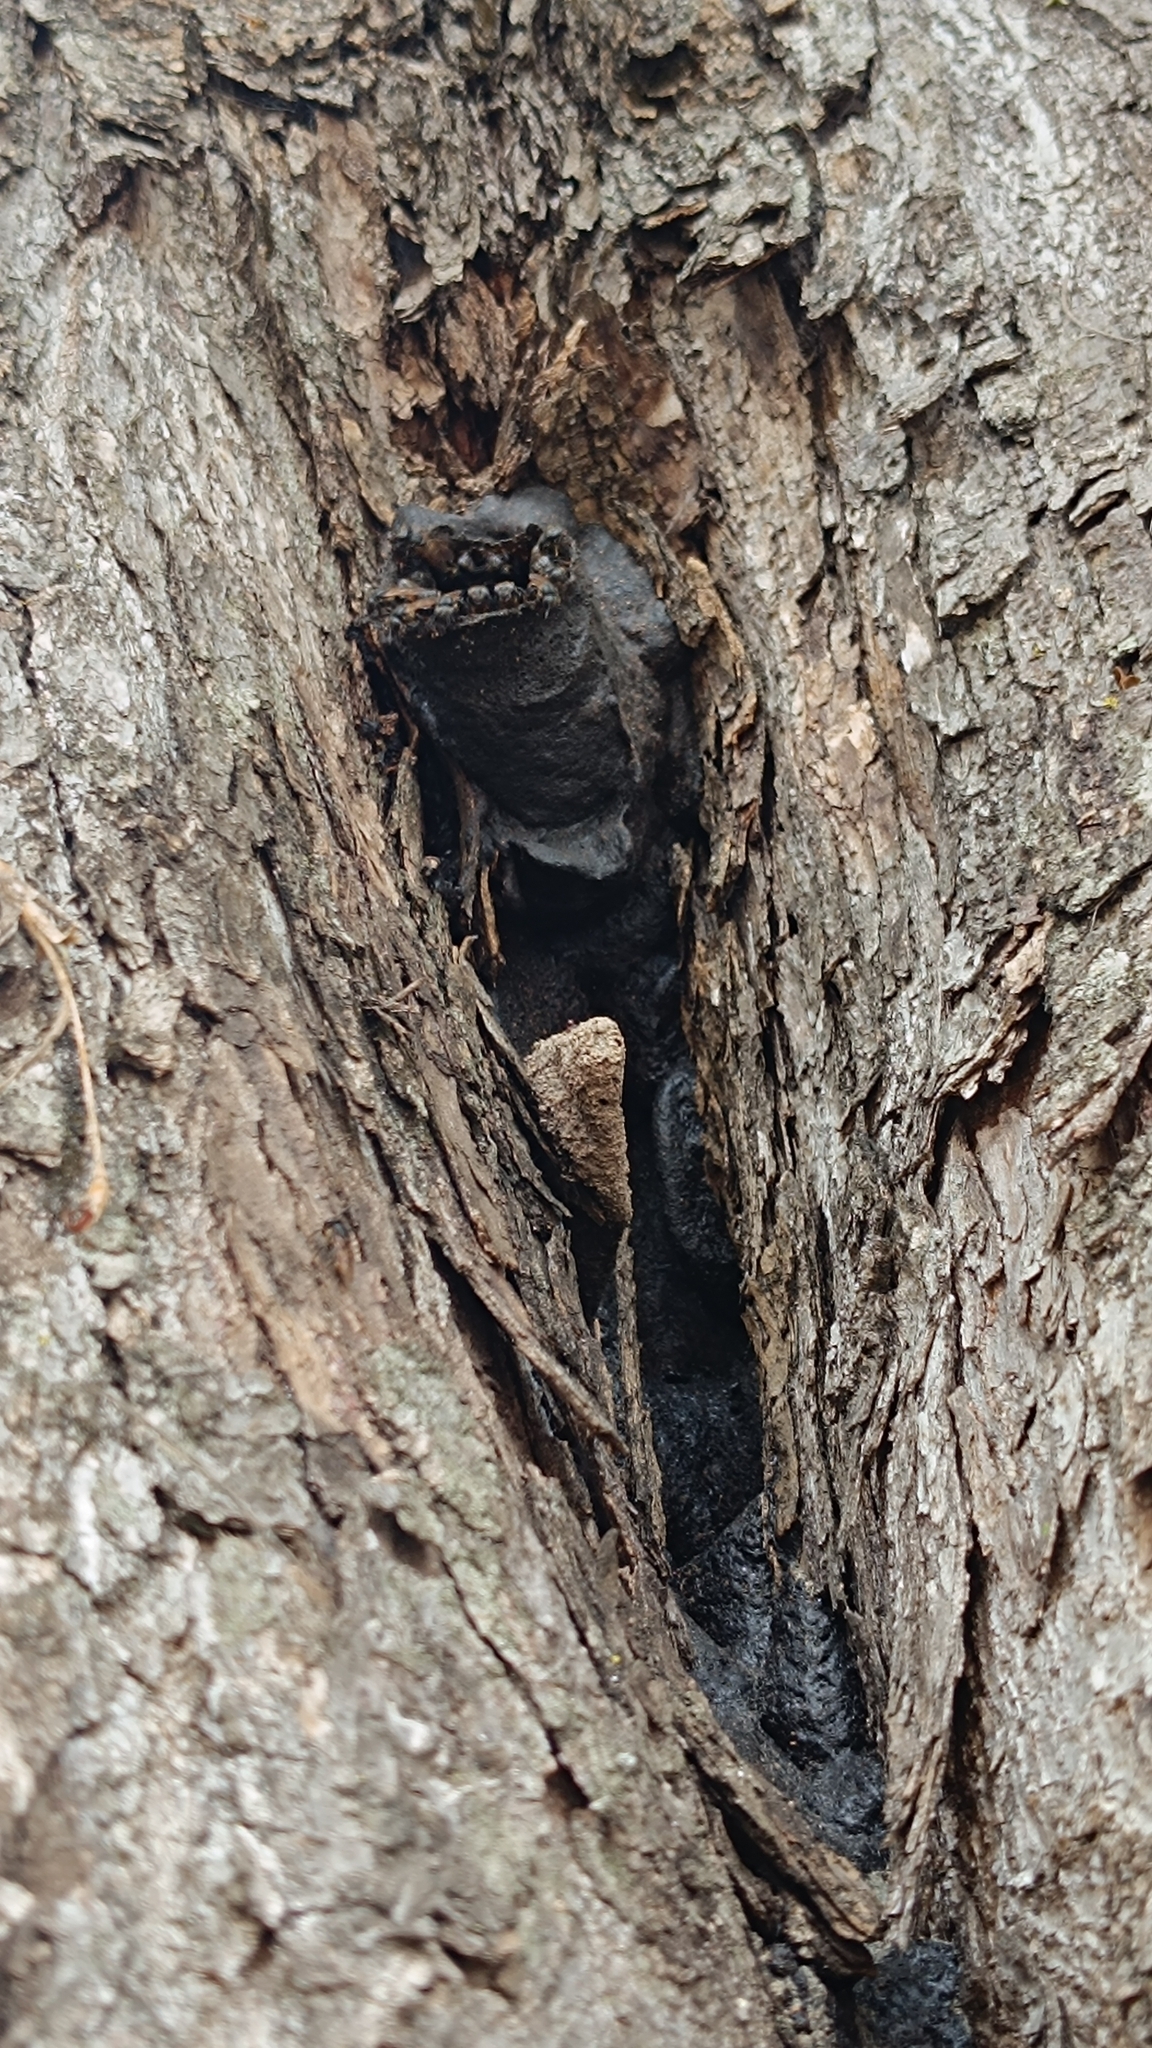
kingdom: Animalia
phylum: Arthropoda
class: Insecta
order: Hymenoptera
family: Apidae
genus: Scaptotrigona
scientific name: Scaptotrigona postica
